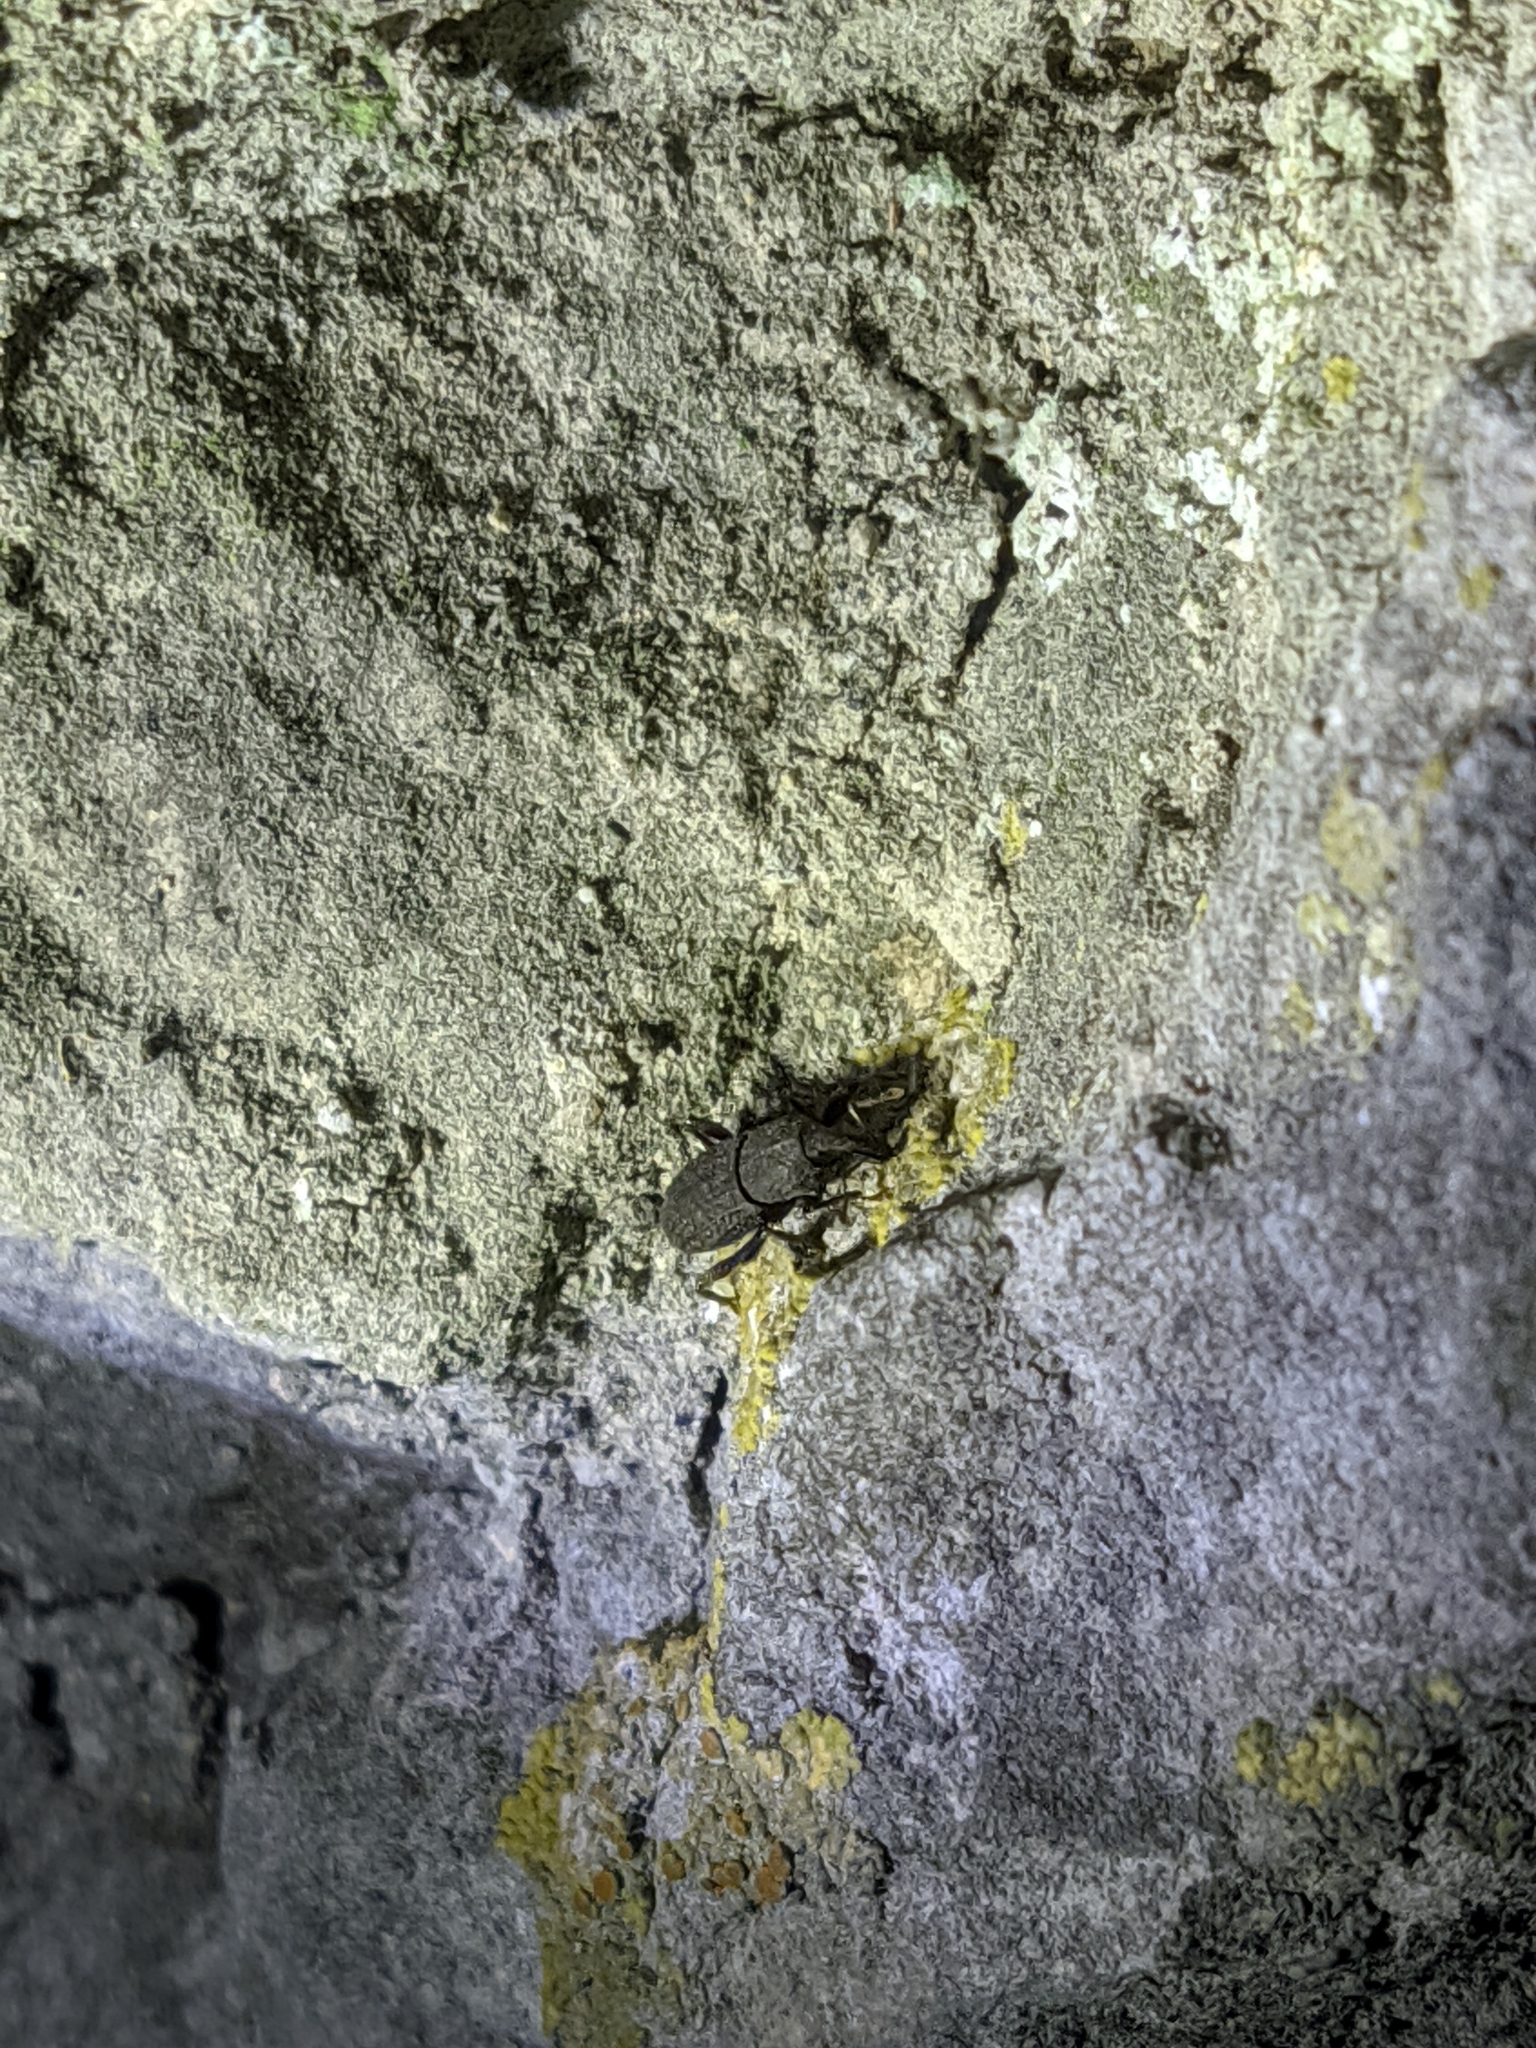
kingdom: Animalia
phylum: Arthropoda
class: Insecta
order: Coleoptera
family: Curculionidae
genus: Mitoplinthus
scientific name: Mitoplinthus caliginosus
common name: Hop root weevil
